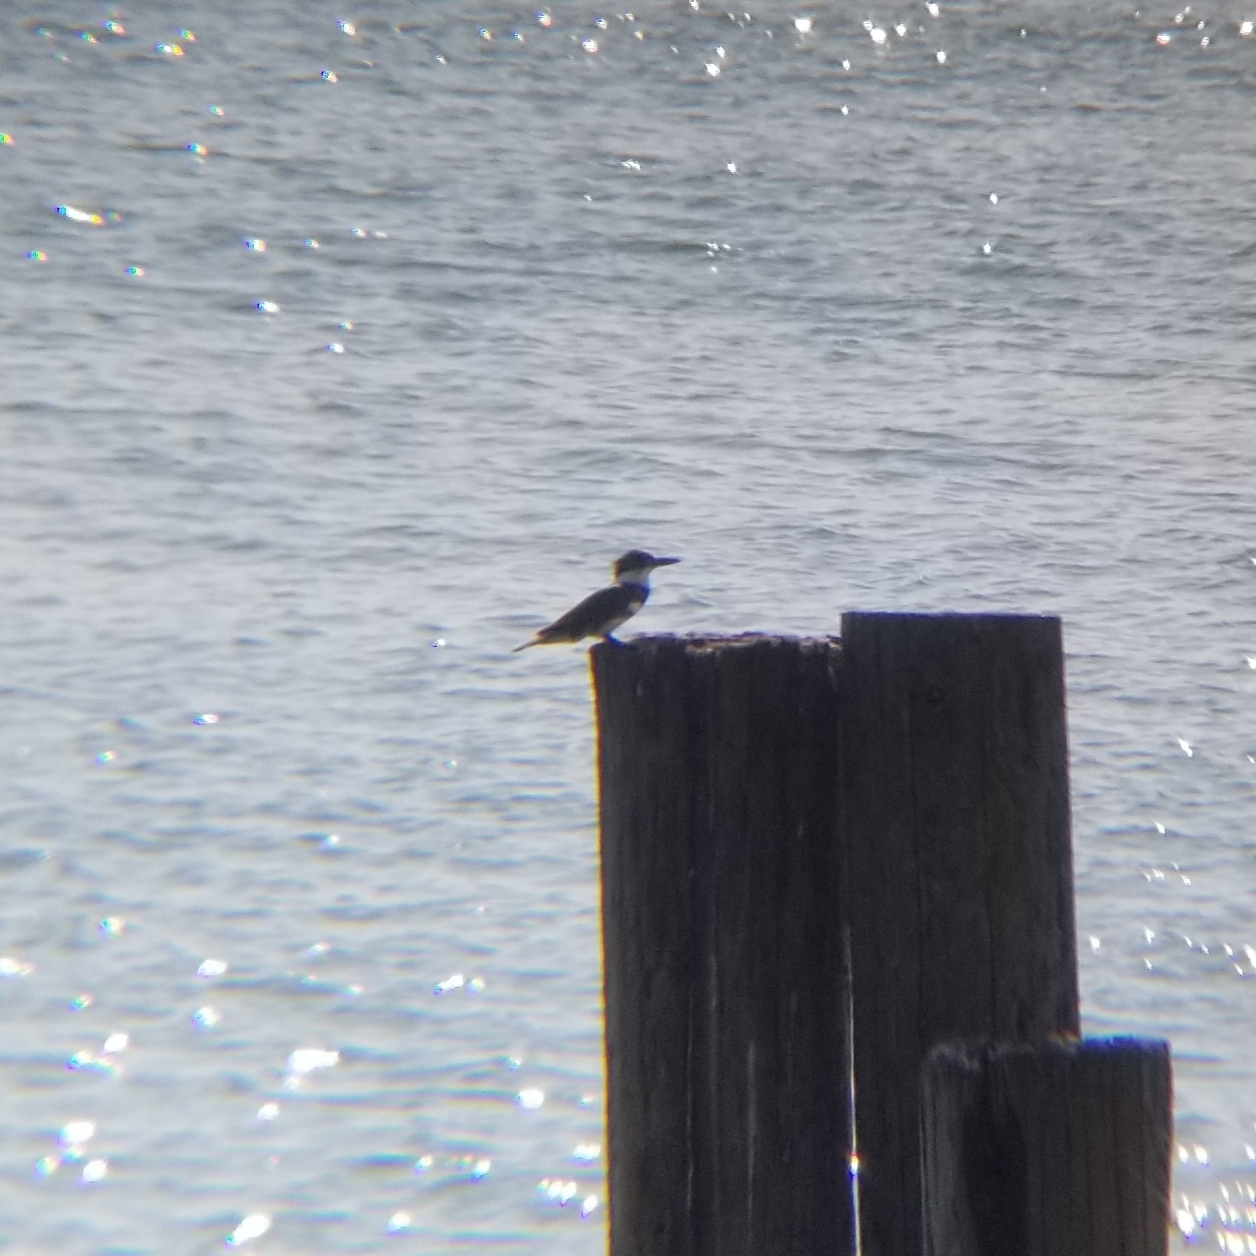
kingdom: Animalia
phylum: Chordata
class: Aves
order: Coraciiformes
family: Alcedinidae
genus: Megaceryle
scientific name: Megaceryle alcyon
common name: Belted kingfisher
